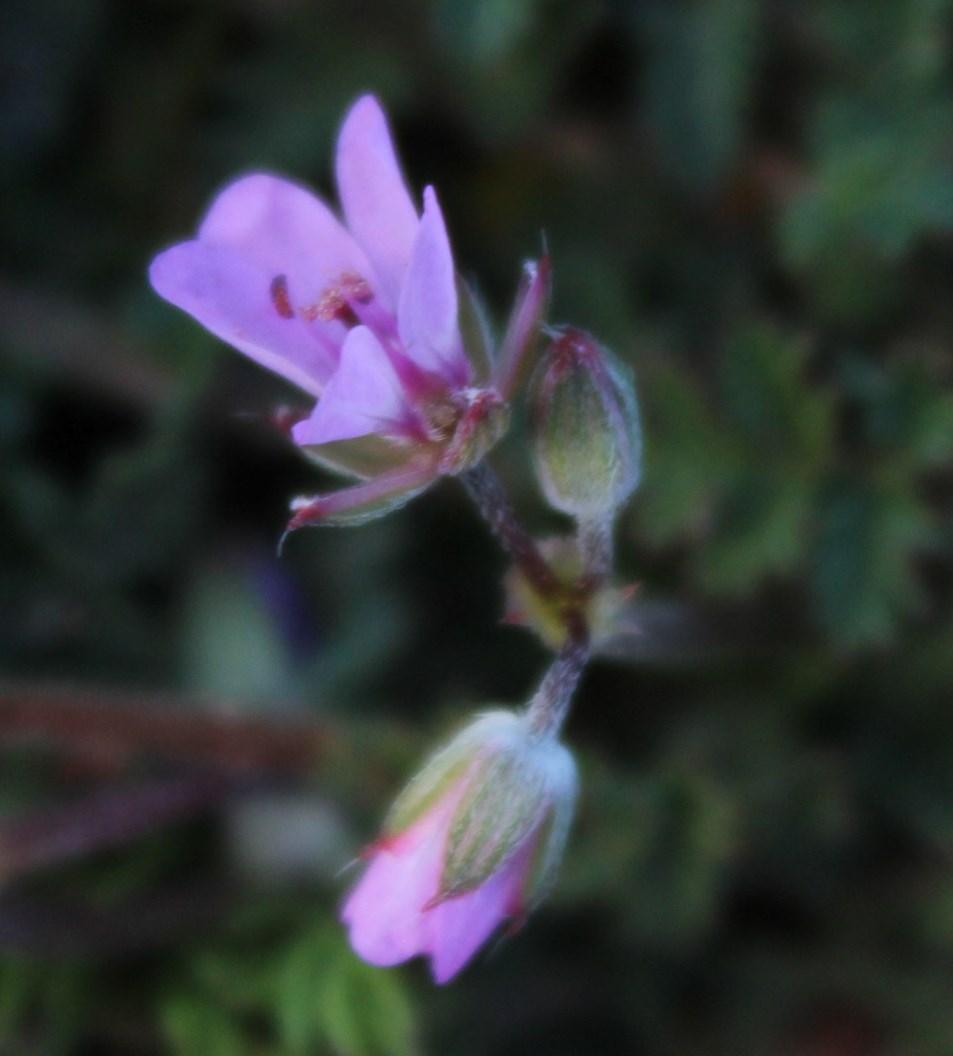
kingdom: Plantae
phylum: Tracheophyta
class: Magnoliopsida
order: Geraniales
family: Geraniaceae
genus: Erodium
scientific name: Erodium cicutarium
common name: Common stork's-bill
